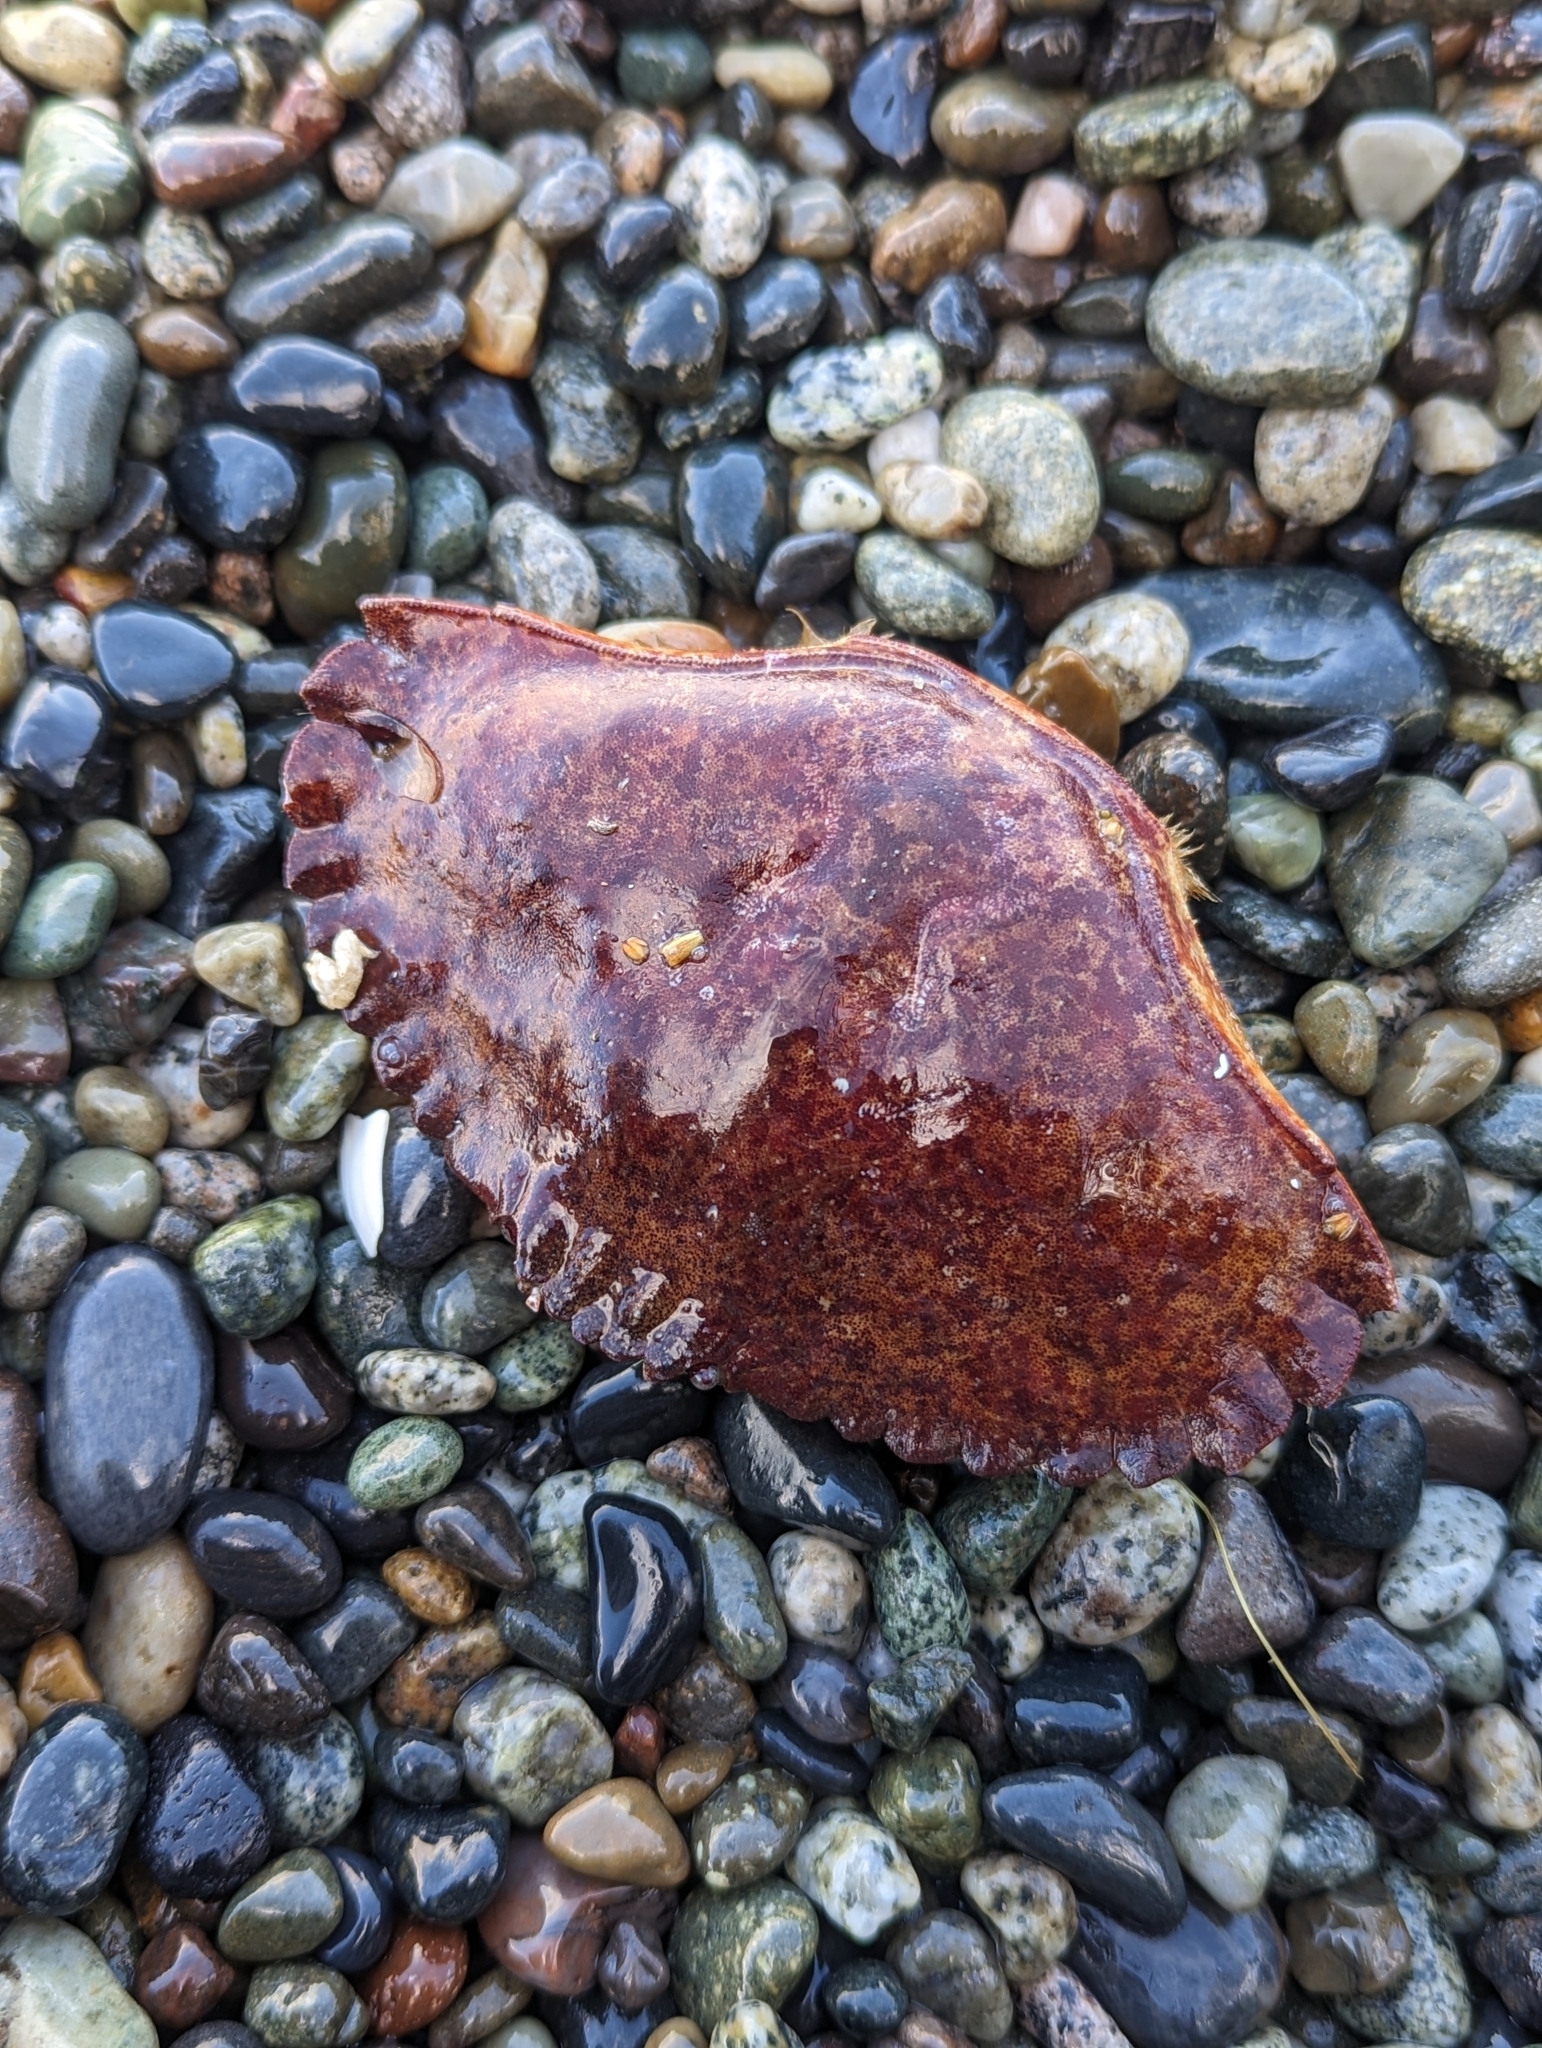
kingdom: Animalia
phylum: Arthropoda
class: Malacostraca
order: Decapoda
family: Cancridae
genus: Cancer
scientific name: Cancer productus
